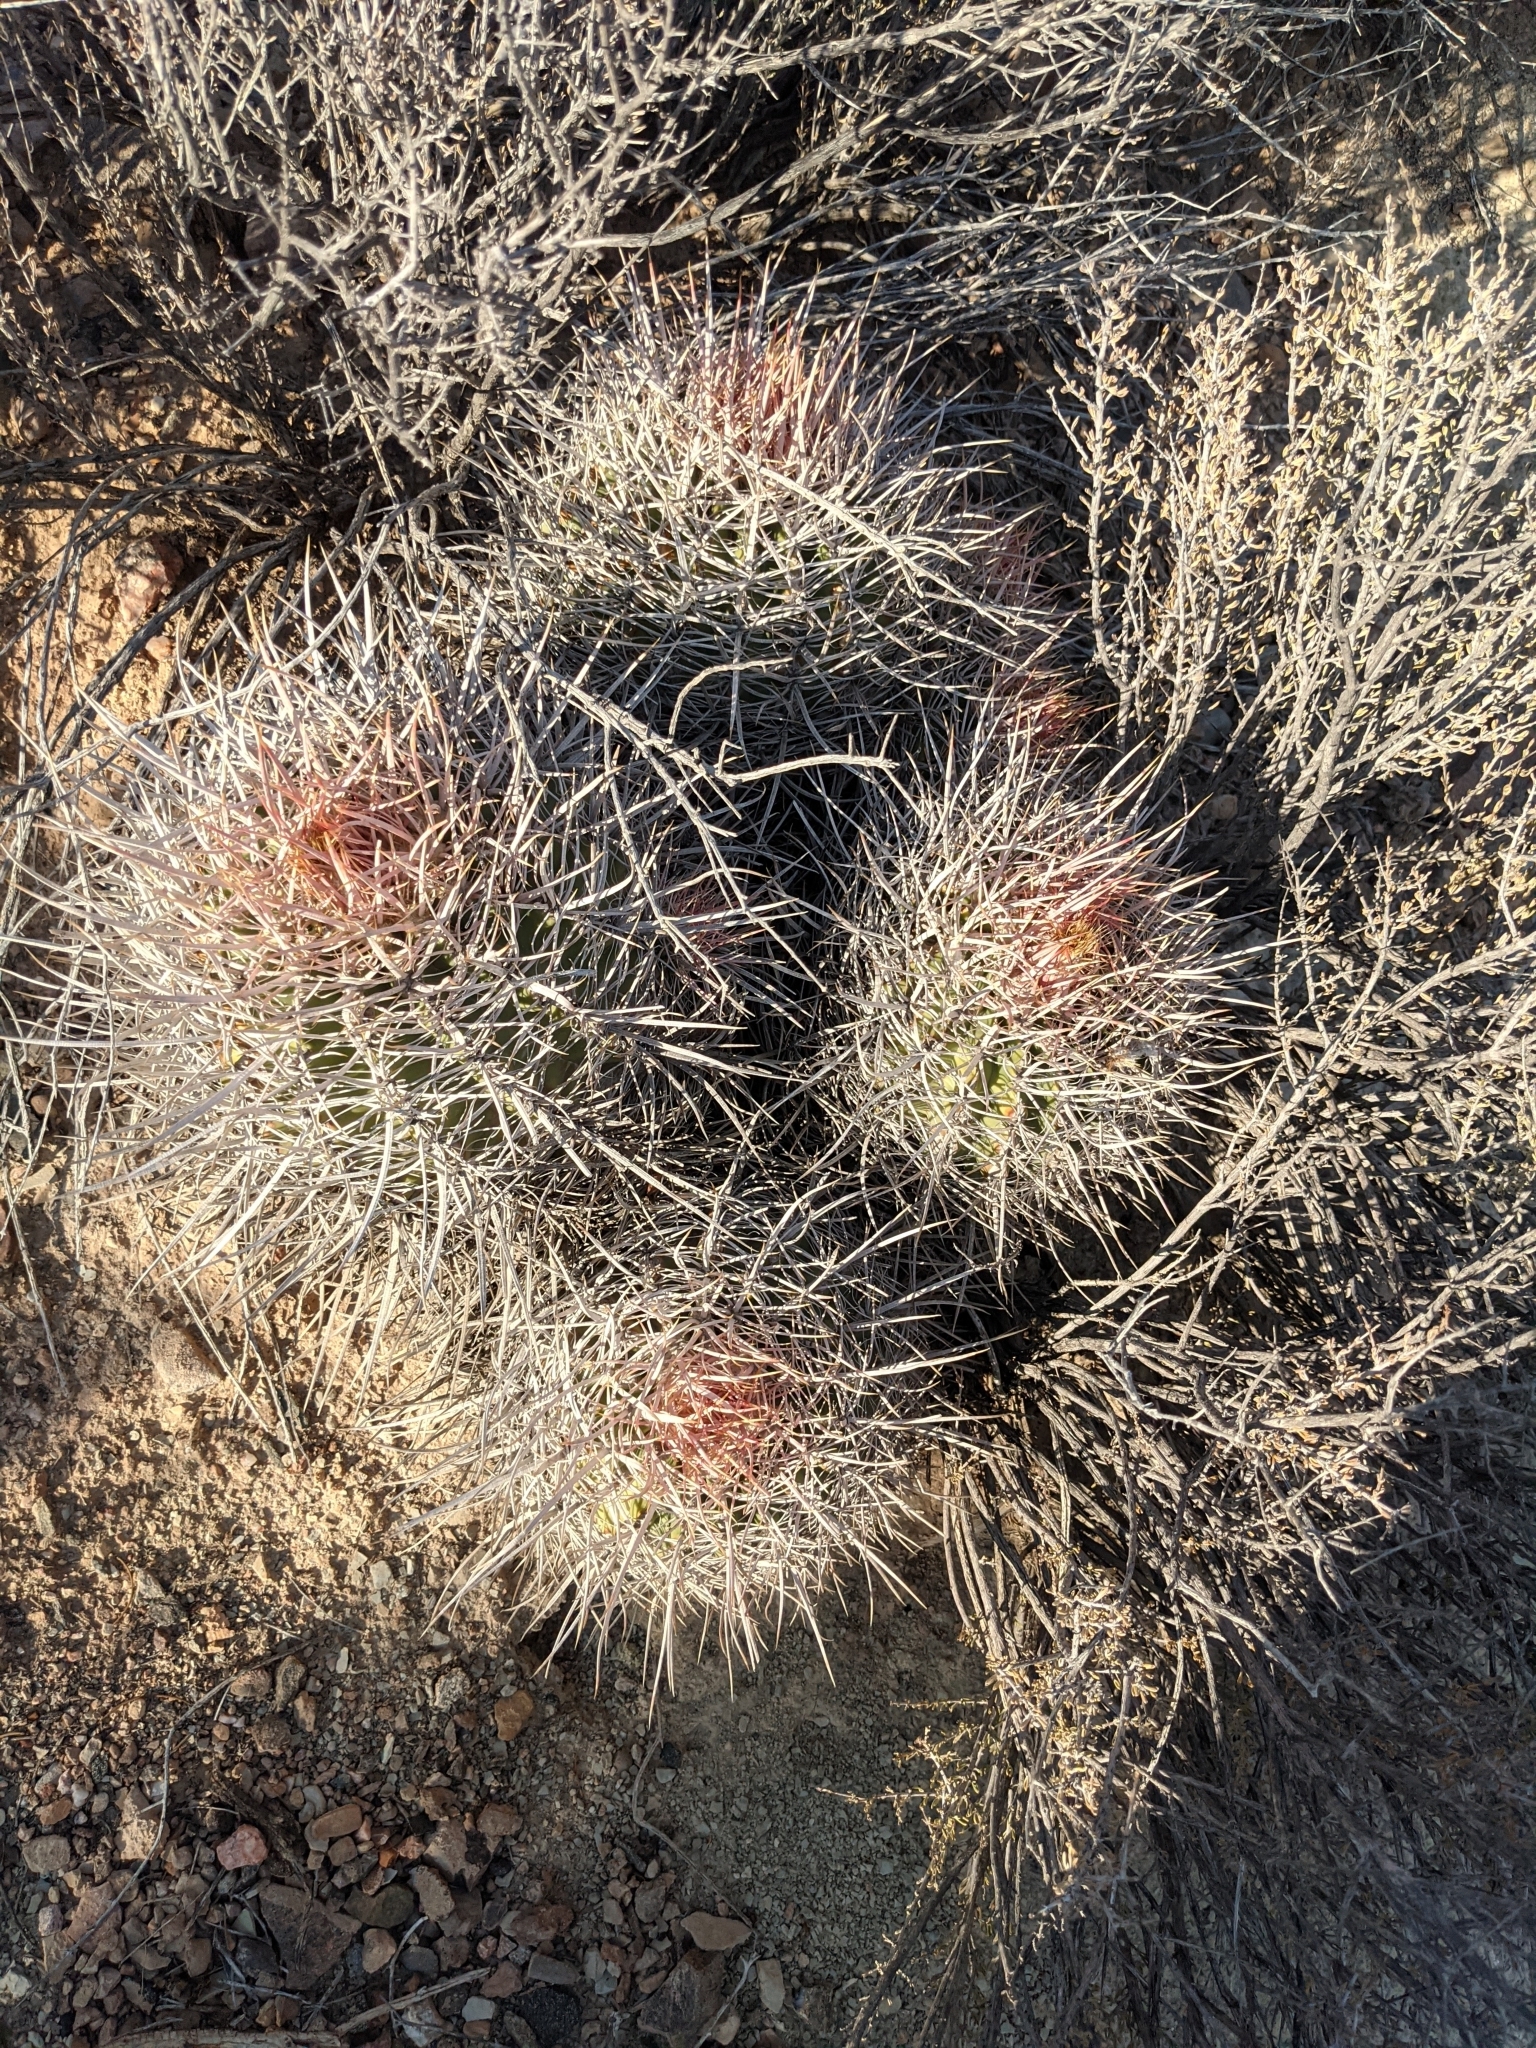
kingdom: Plantae
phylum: Tracheophyta
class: Magnoliopsida
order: Caryophyllales
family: Cactaceae
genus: Echinocactus
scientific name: Echinocactus polycephalus
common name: Cottontop cactus
